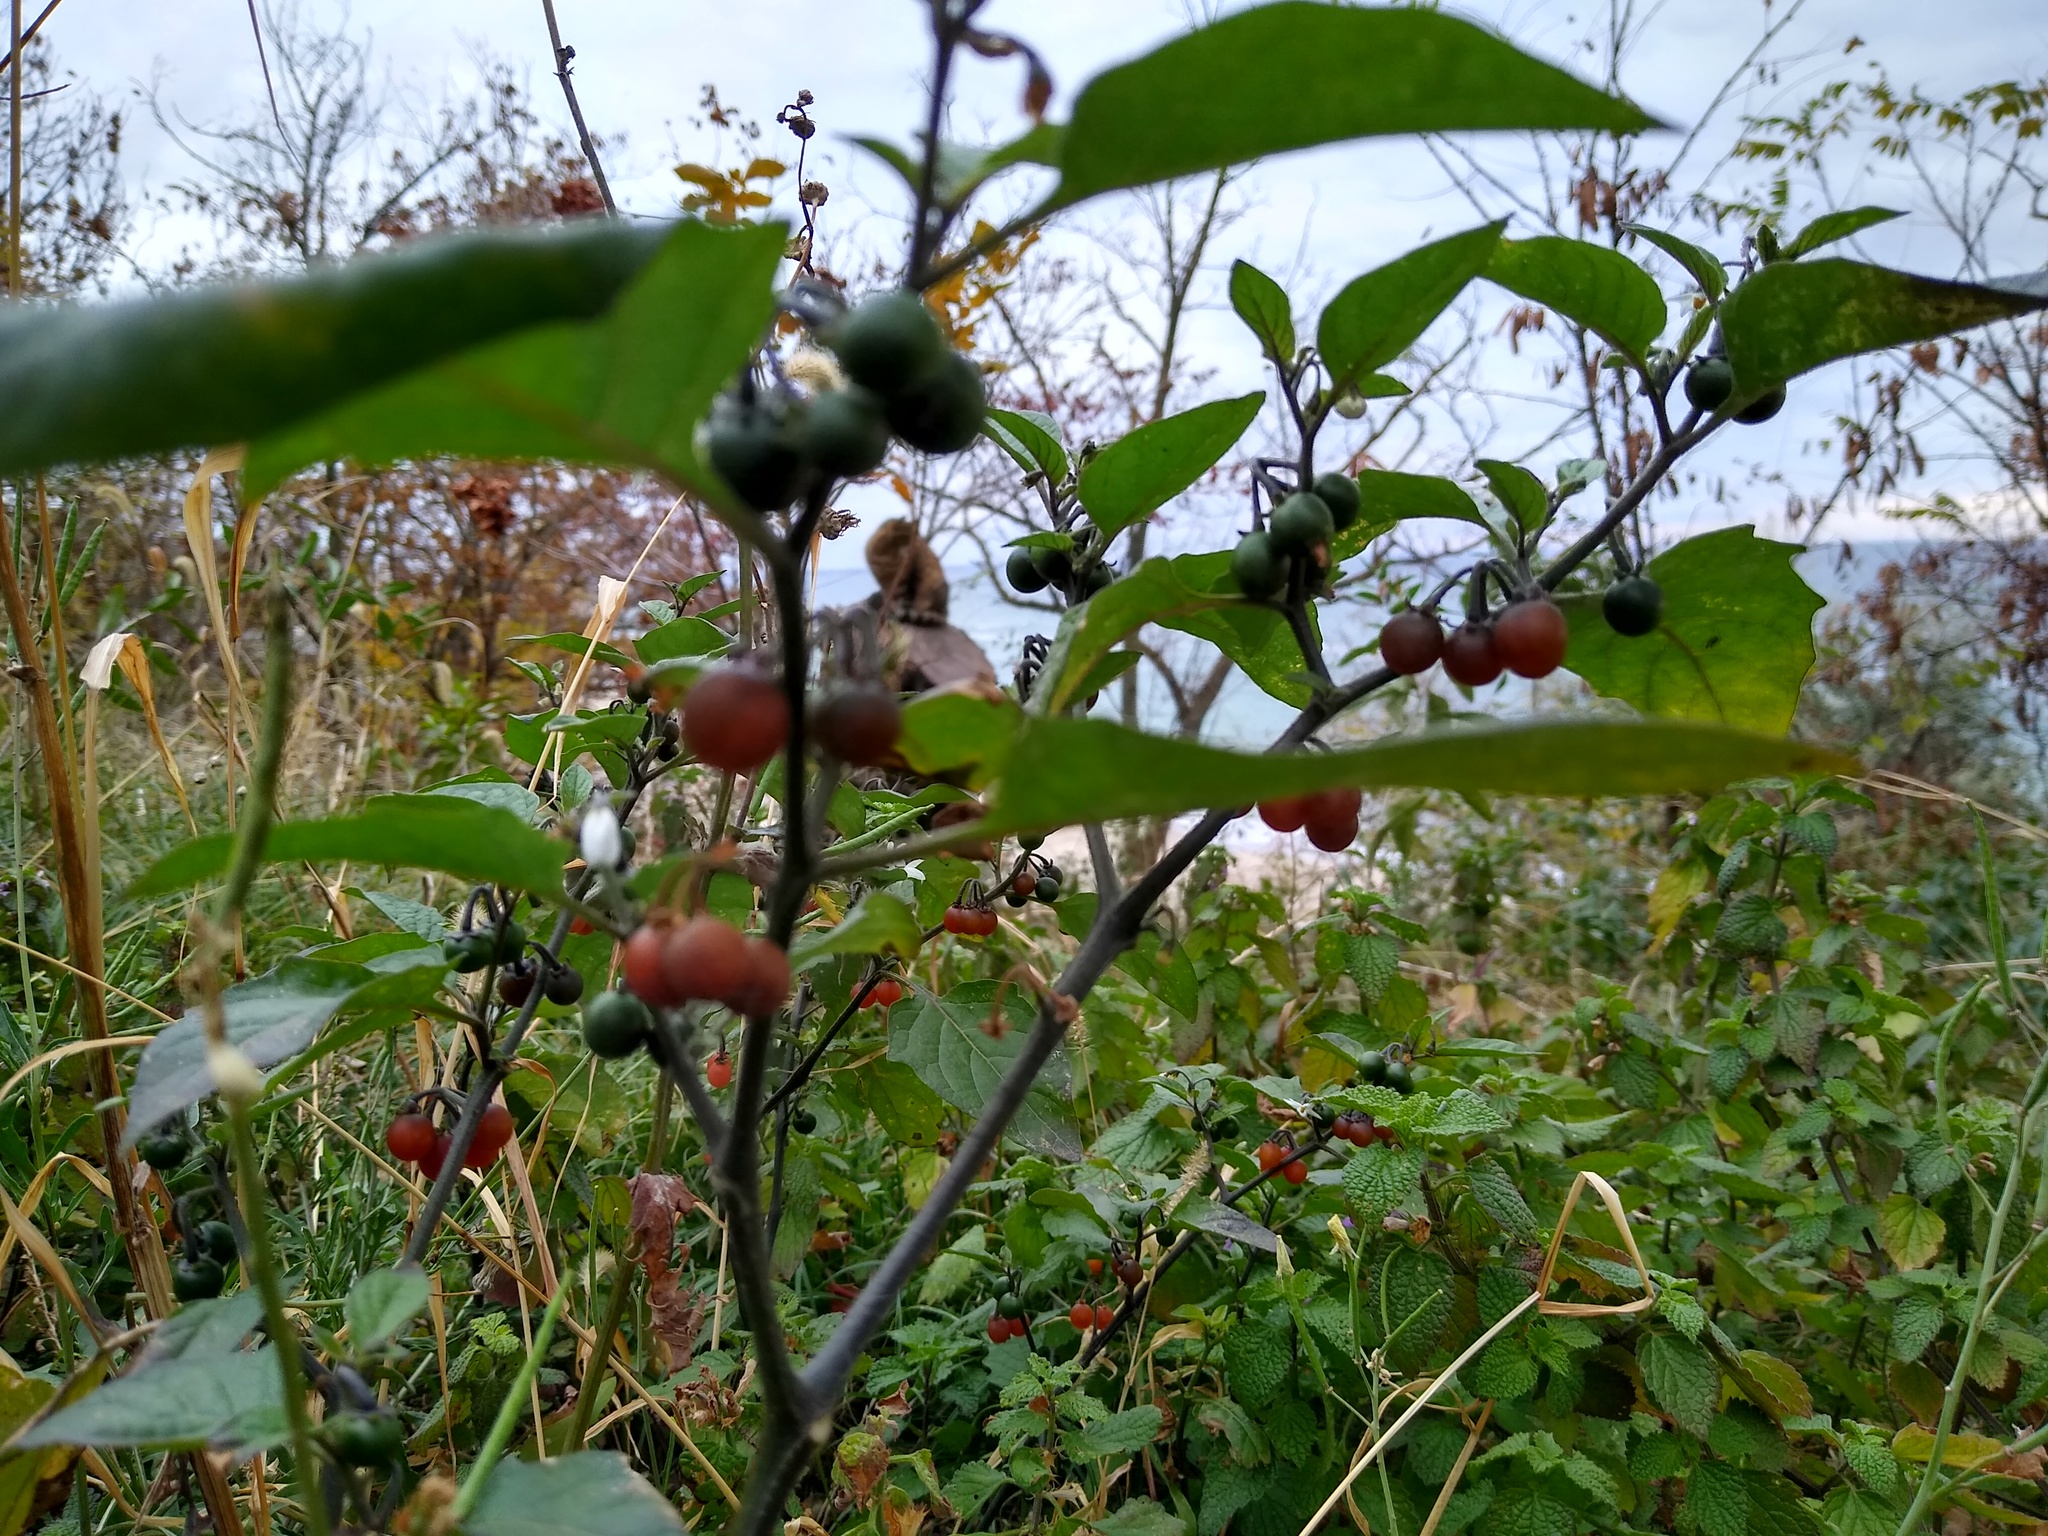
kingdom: Plantae
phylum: Tracheophyta
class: Magnoliopsida
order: Solanales
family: Solanaceae
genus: Solanum
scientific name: Solanum villosum
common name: Red nightshade
